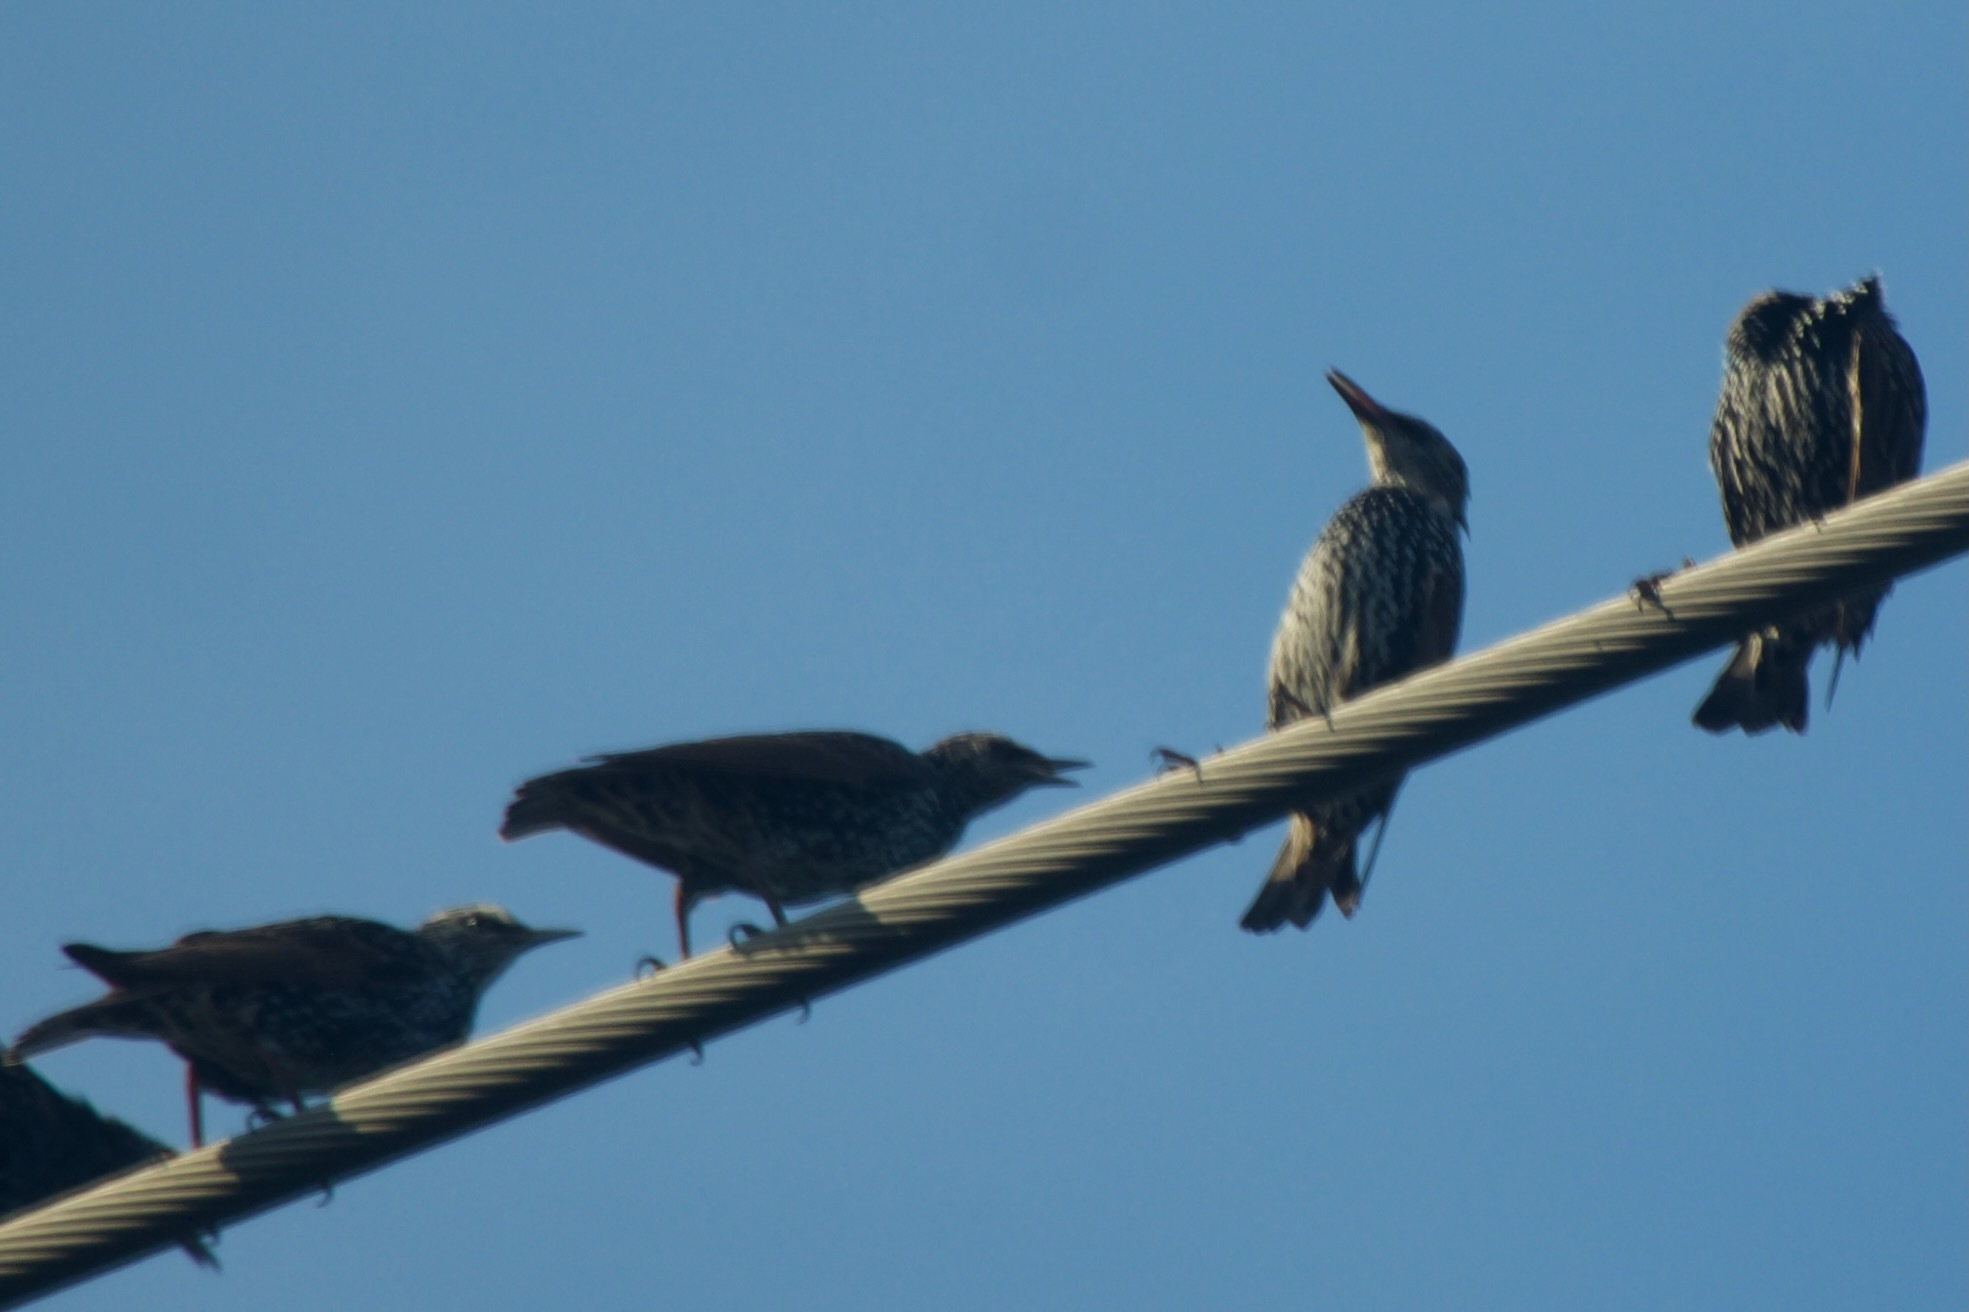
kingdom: Animalia
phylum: Chordata
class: Aves
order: Passeriformes
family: Sturnidae
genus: Sturnus
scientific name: Sturnus vulgaris
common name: Common starling
